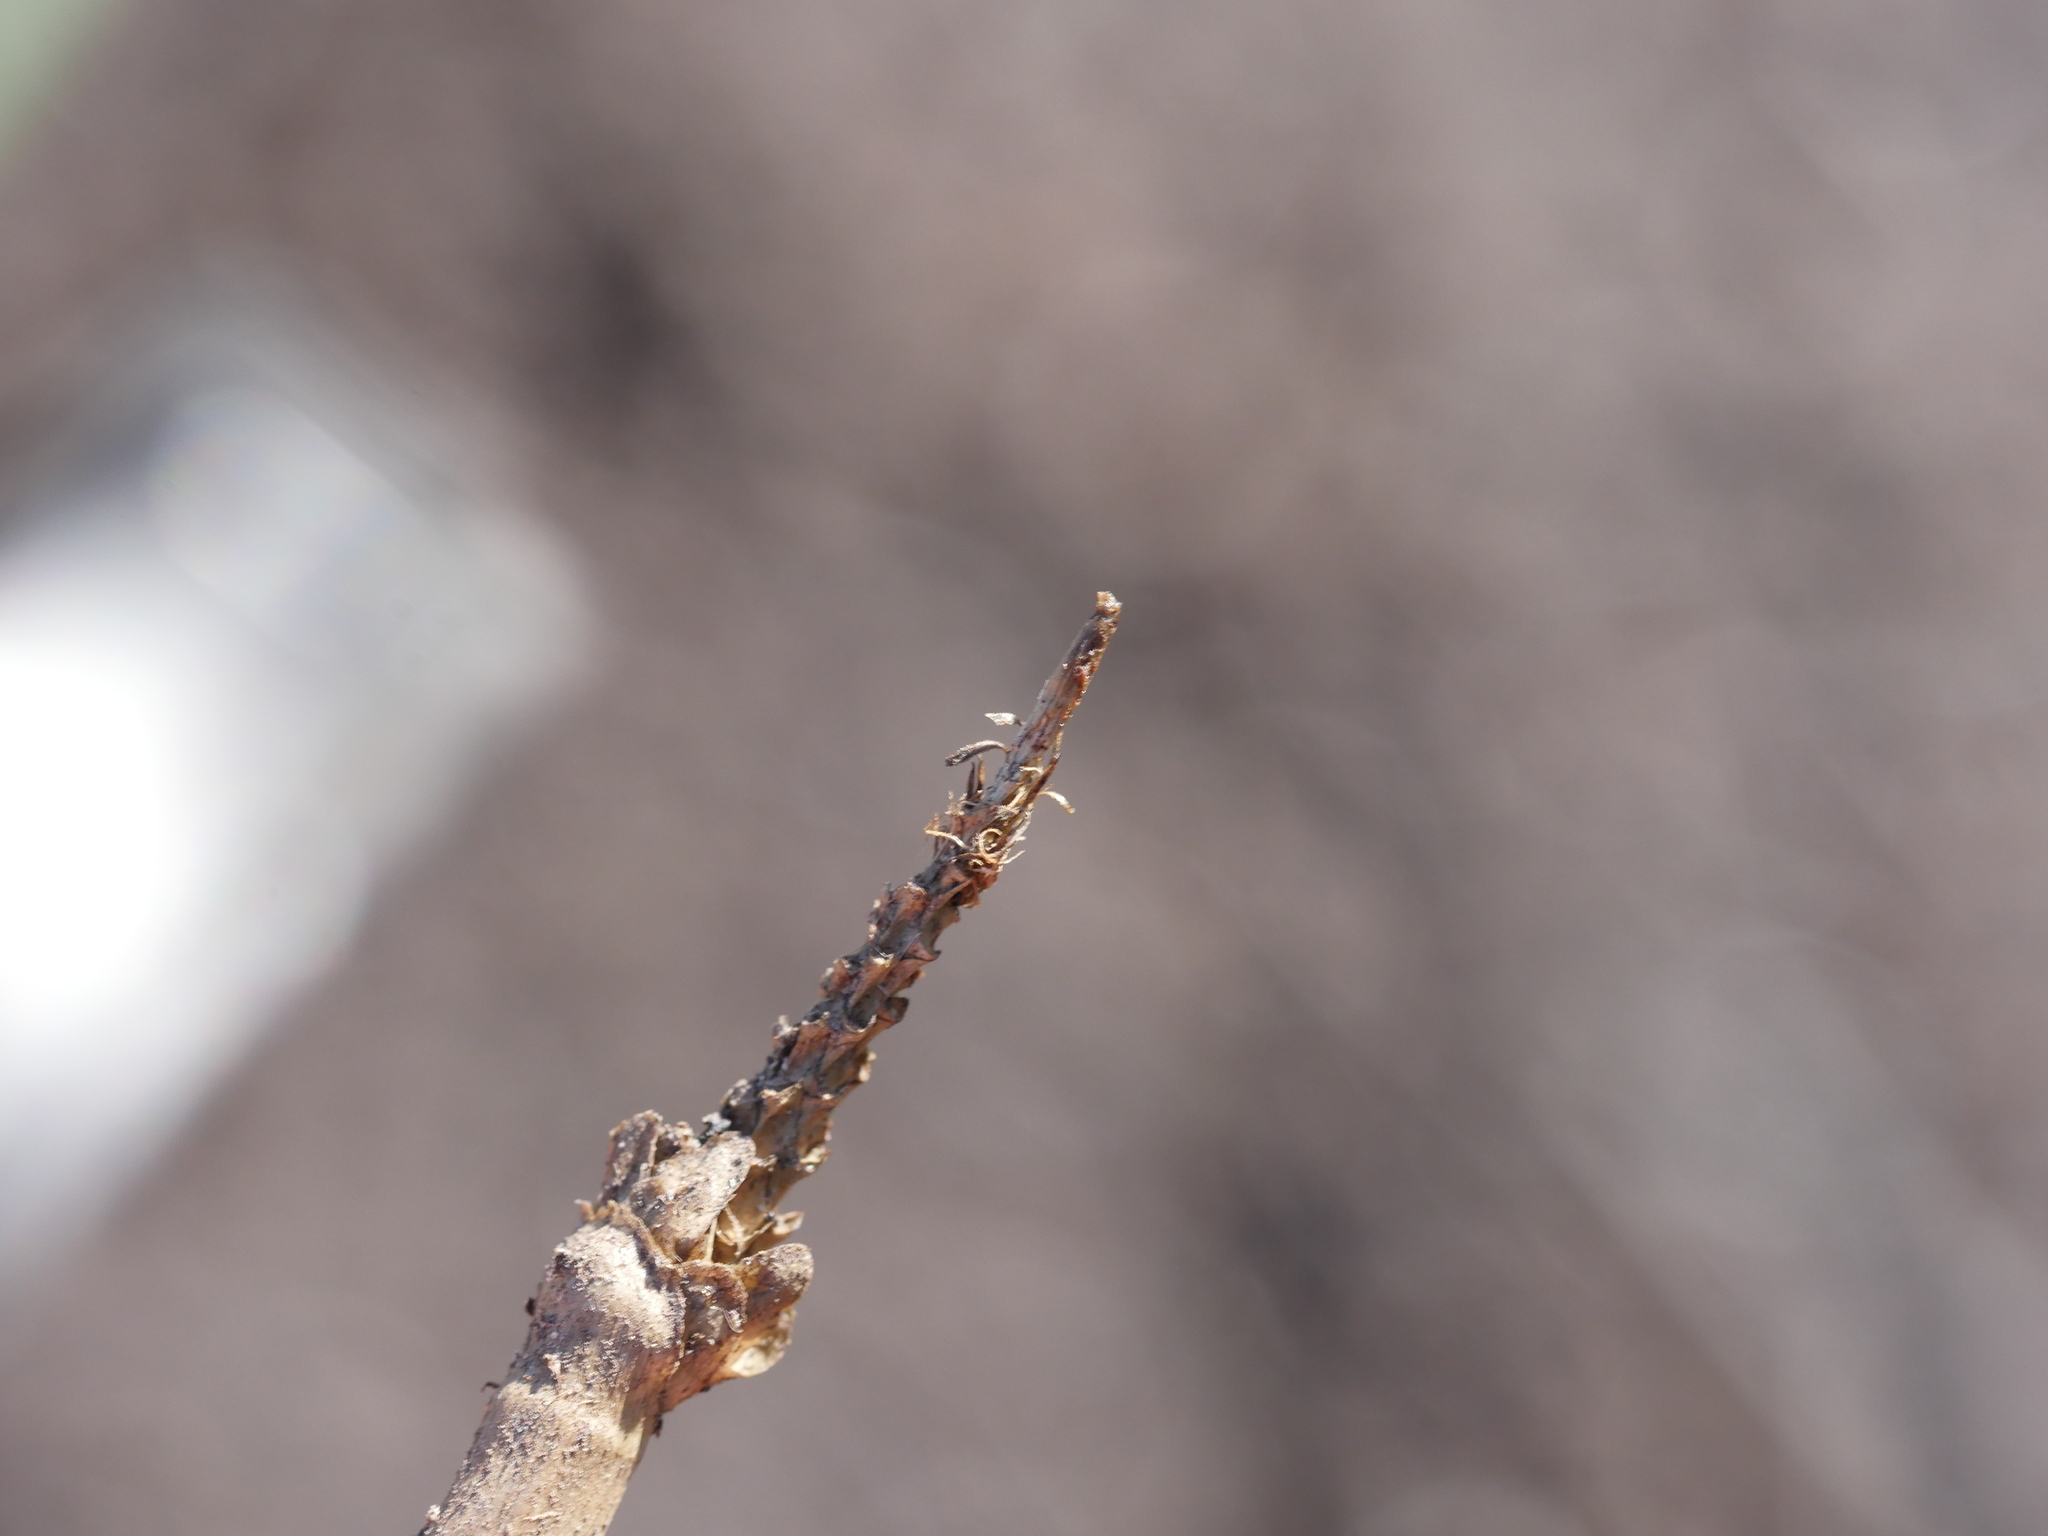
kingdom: Plantae
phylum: Tracheophyta
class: Liliopsida
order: Poales
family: Cyperaceae
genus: Eleocharis
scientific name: Eleocharis sphacelata
